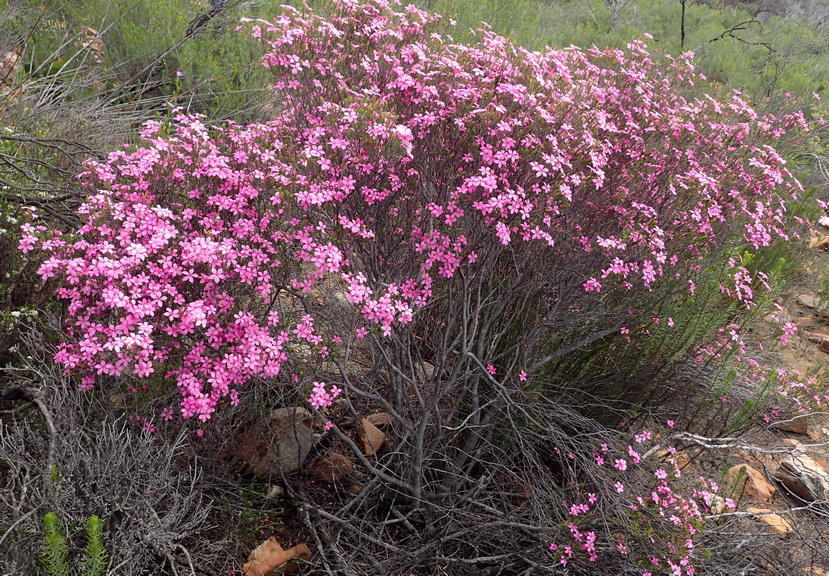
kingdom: Plantae
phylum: Tracheophyta
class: Magnoliopsida
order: Sapindales
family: Rutaceae
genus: Acmadenia
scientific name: Acmadenia sheilae
